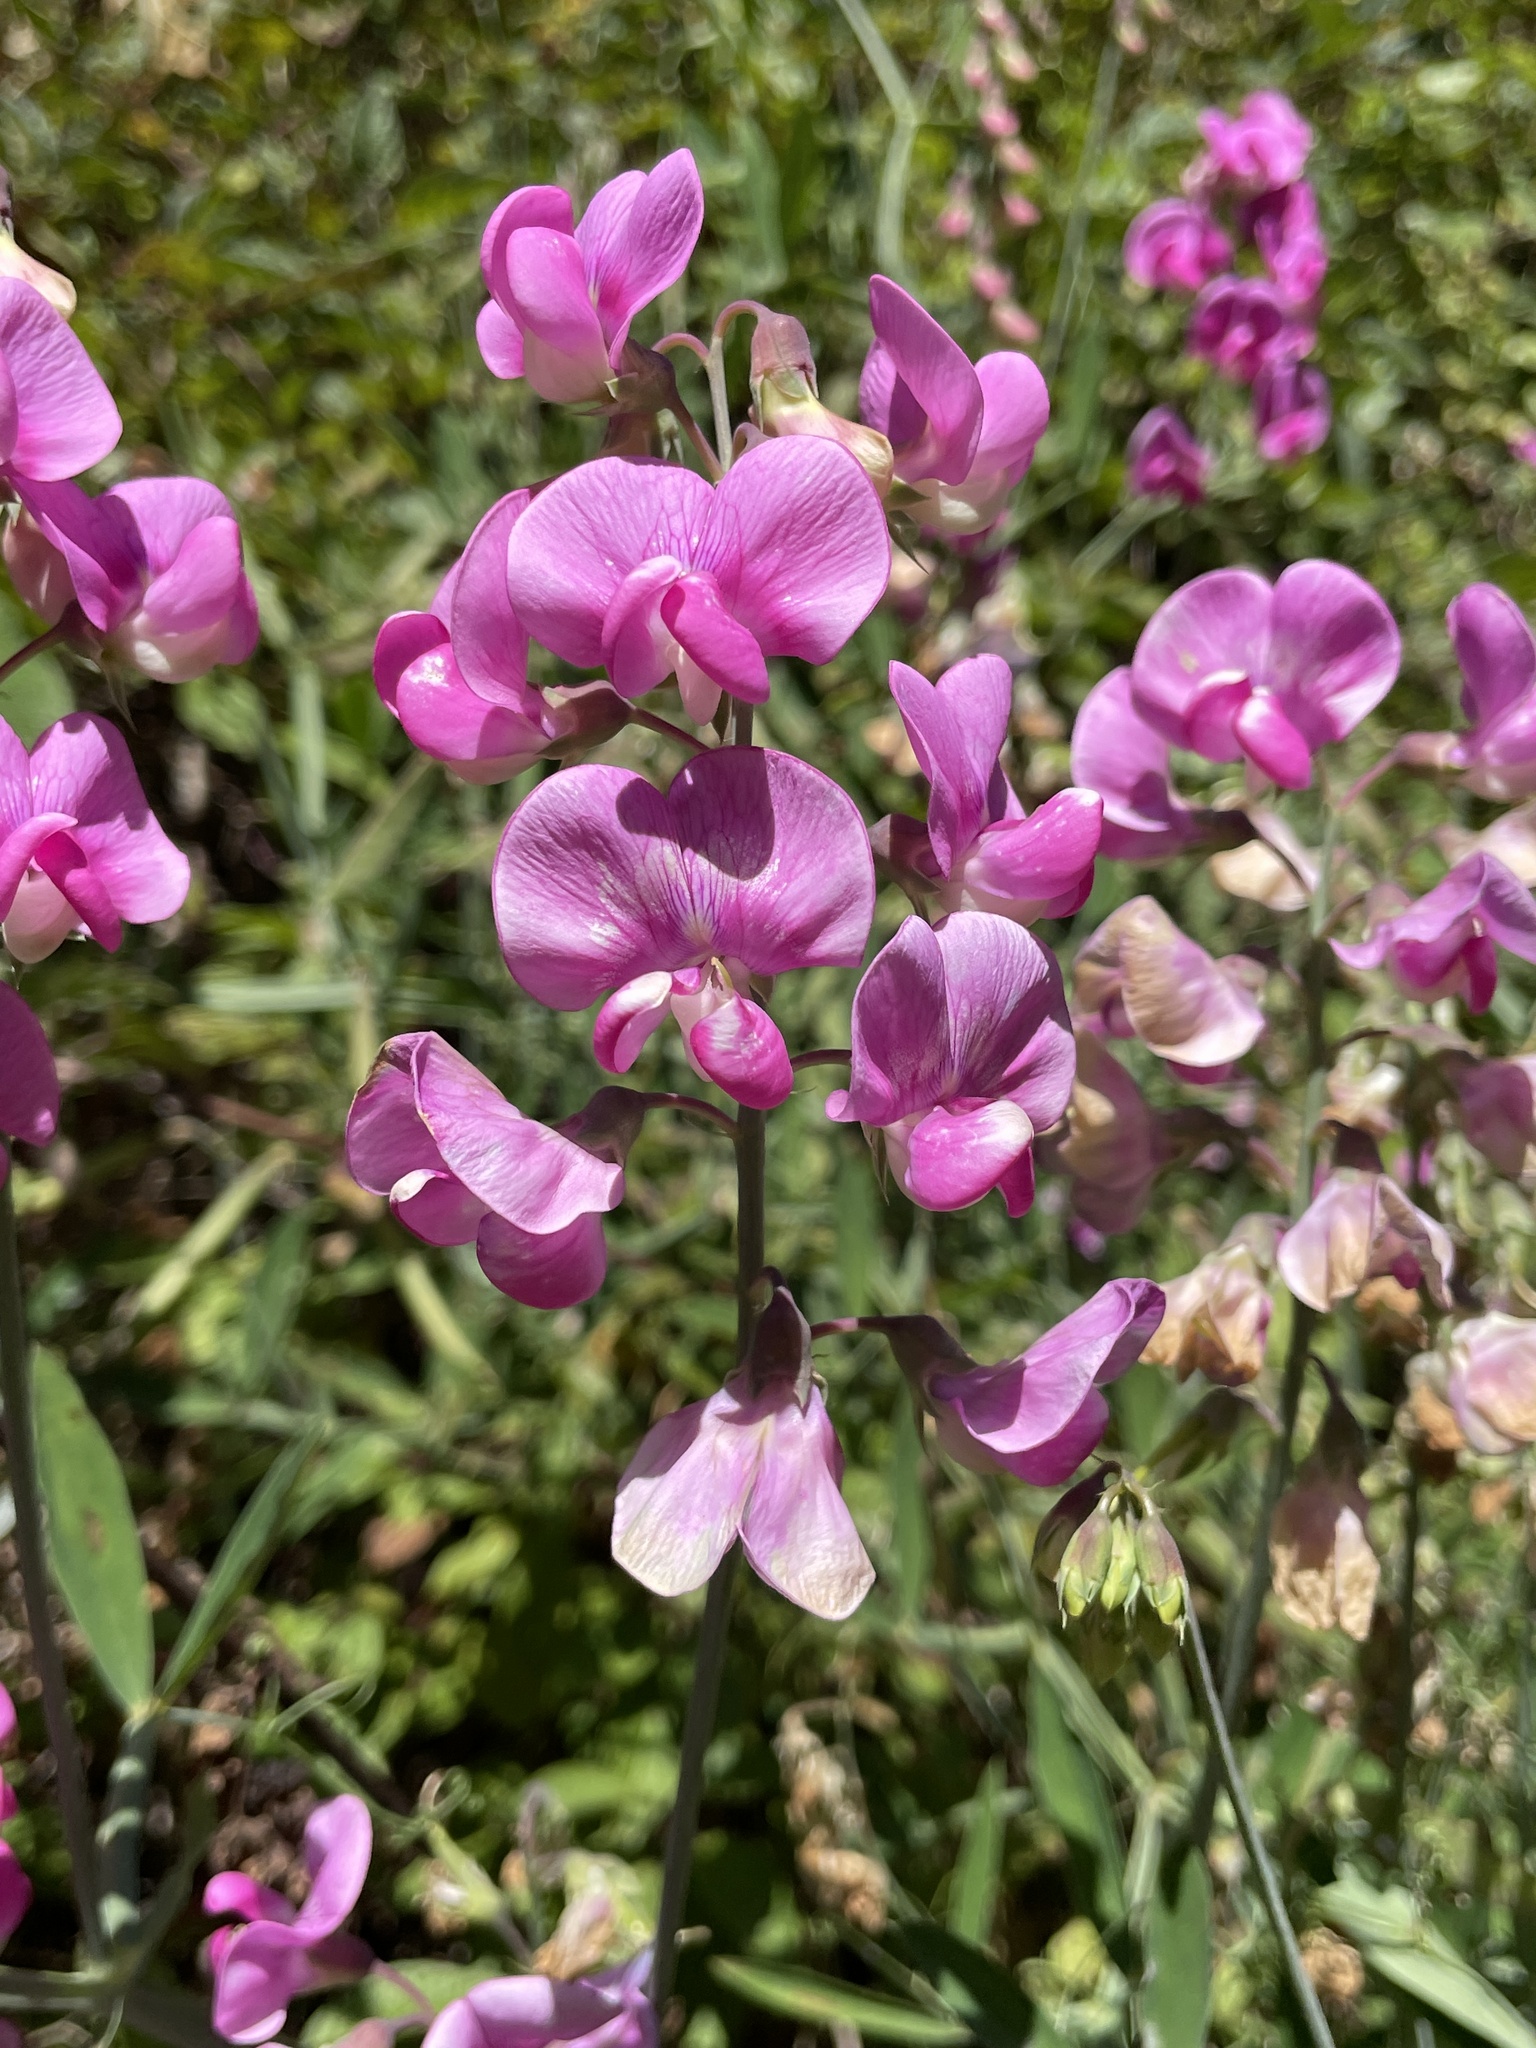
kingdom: Plantae
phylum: Tracheophyta
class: Magnoliopsida
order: Fabales
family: Fabaceae
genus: Lathyrus
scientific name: Lathyrus latifolius
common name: Perennial pea
